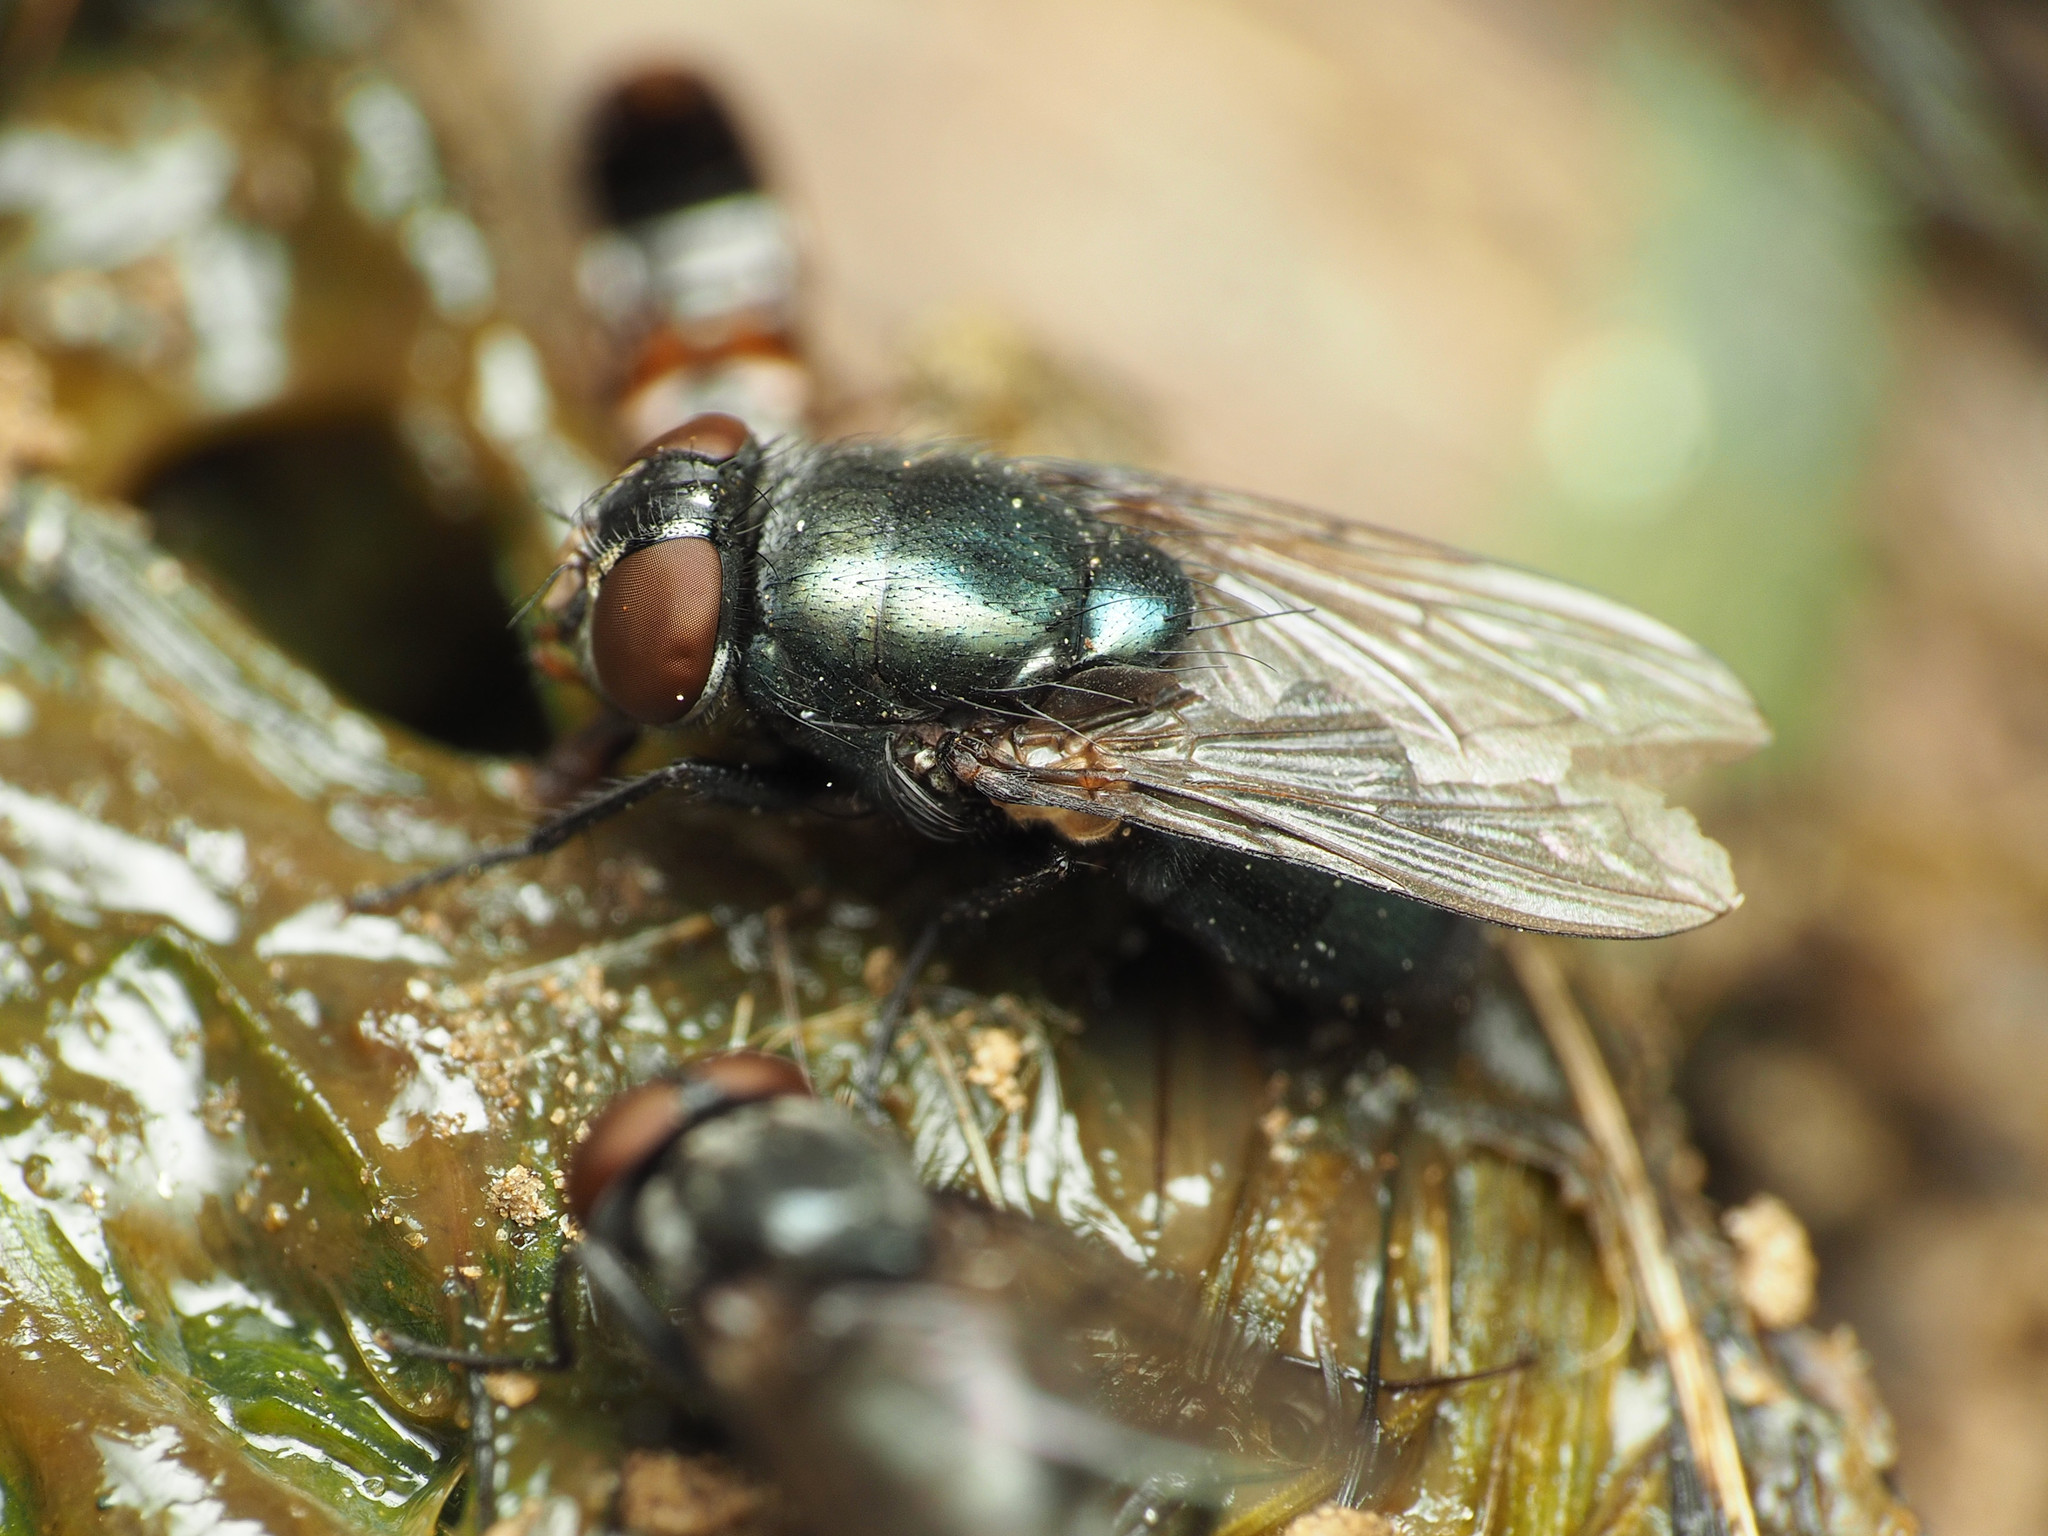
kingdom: Animalia
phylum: Arthropoda
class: Insecta
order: Diptera
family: Calliphoridae
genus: Phormia
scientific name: Phormia regina
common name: Black blow fly
